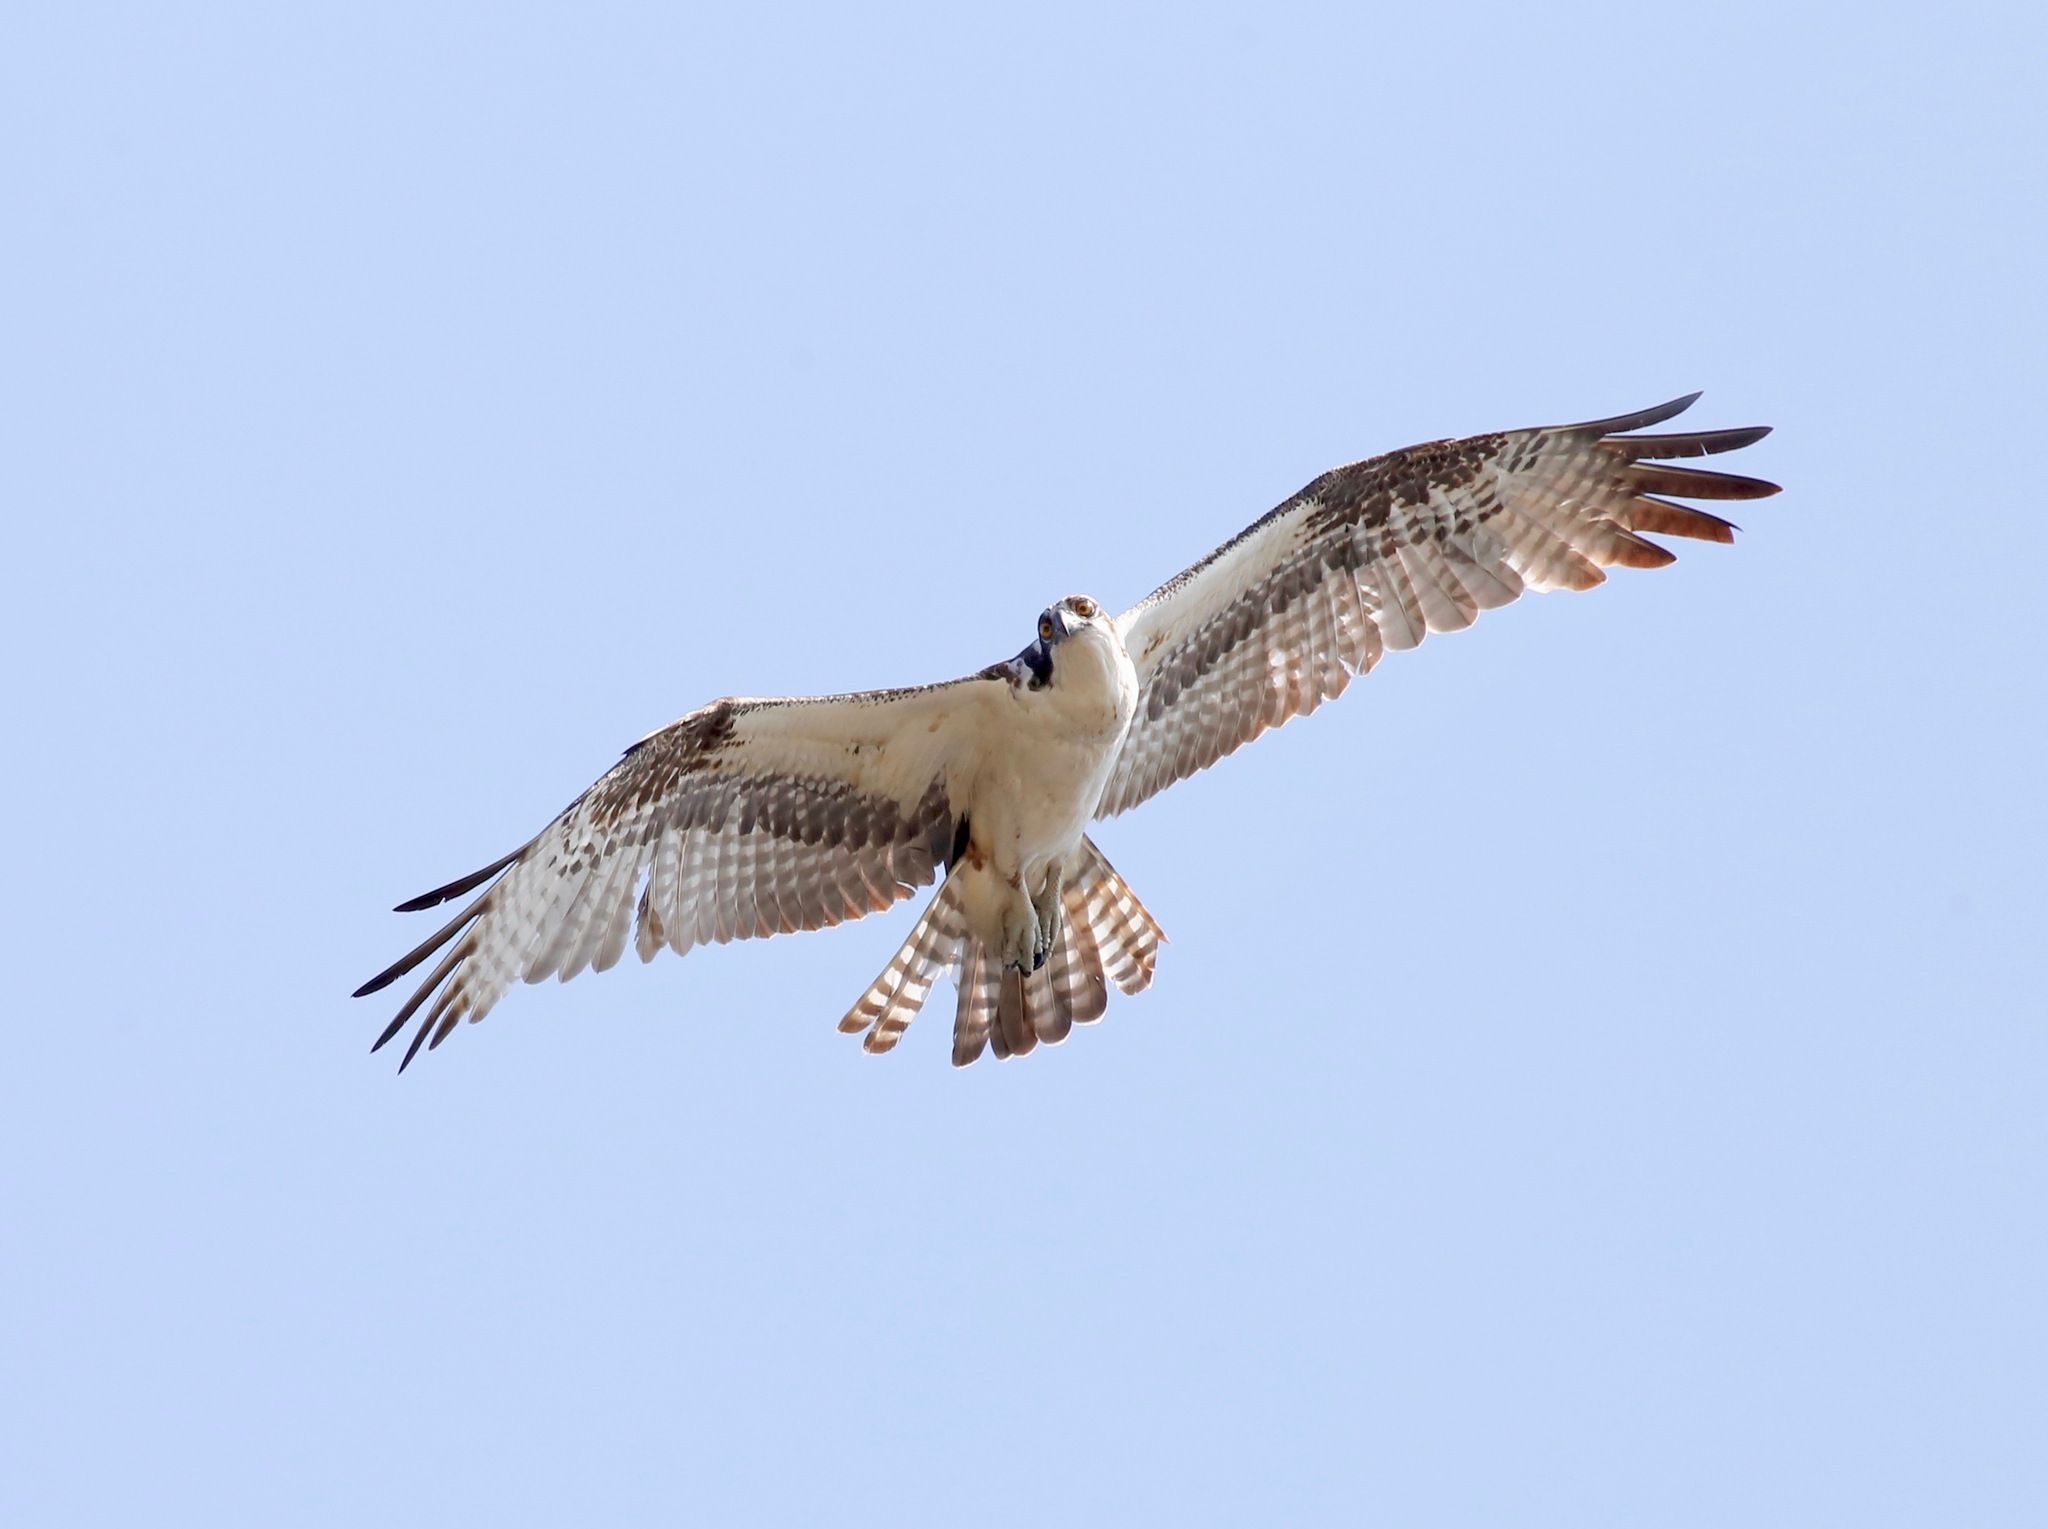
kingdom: Animalia
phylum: Chordata
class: Aves
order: Accipitriformes
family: Pandionidae
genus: Pandion
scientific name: Pandion haliaetus
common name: Osprey
